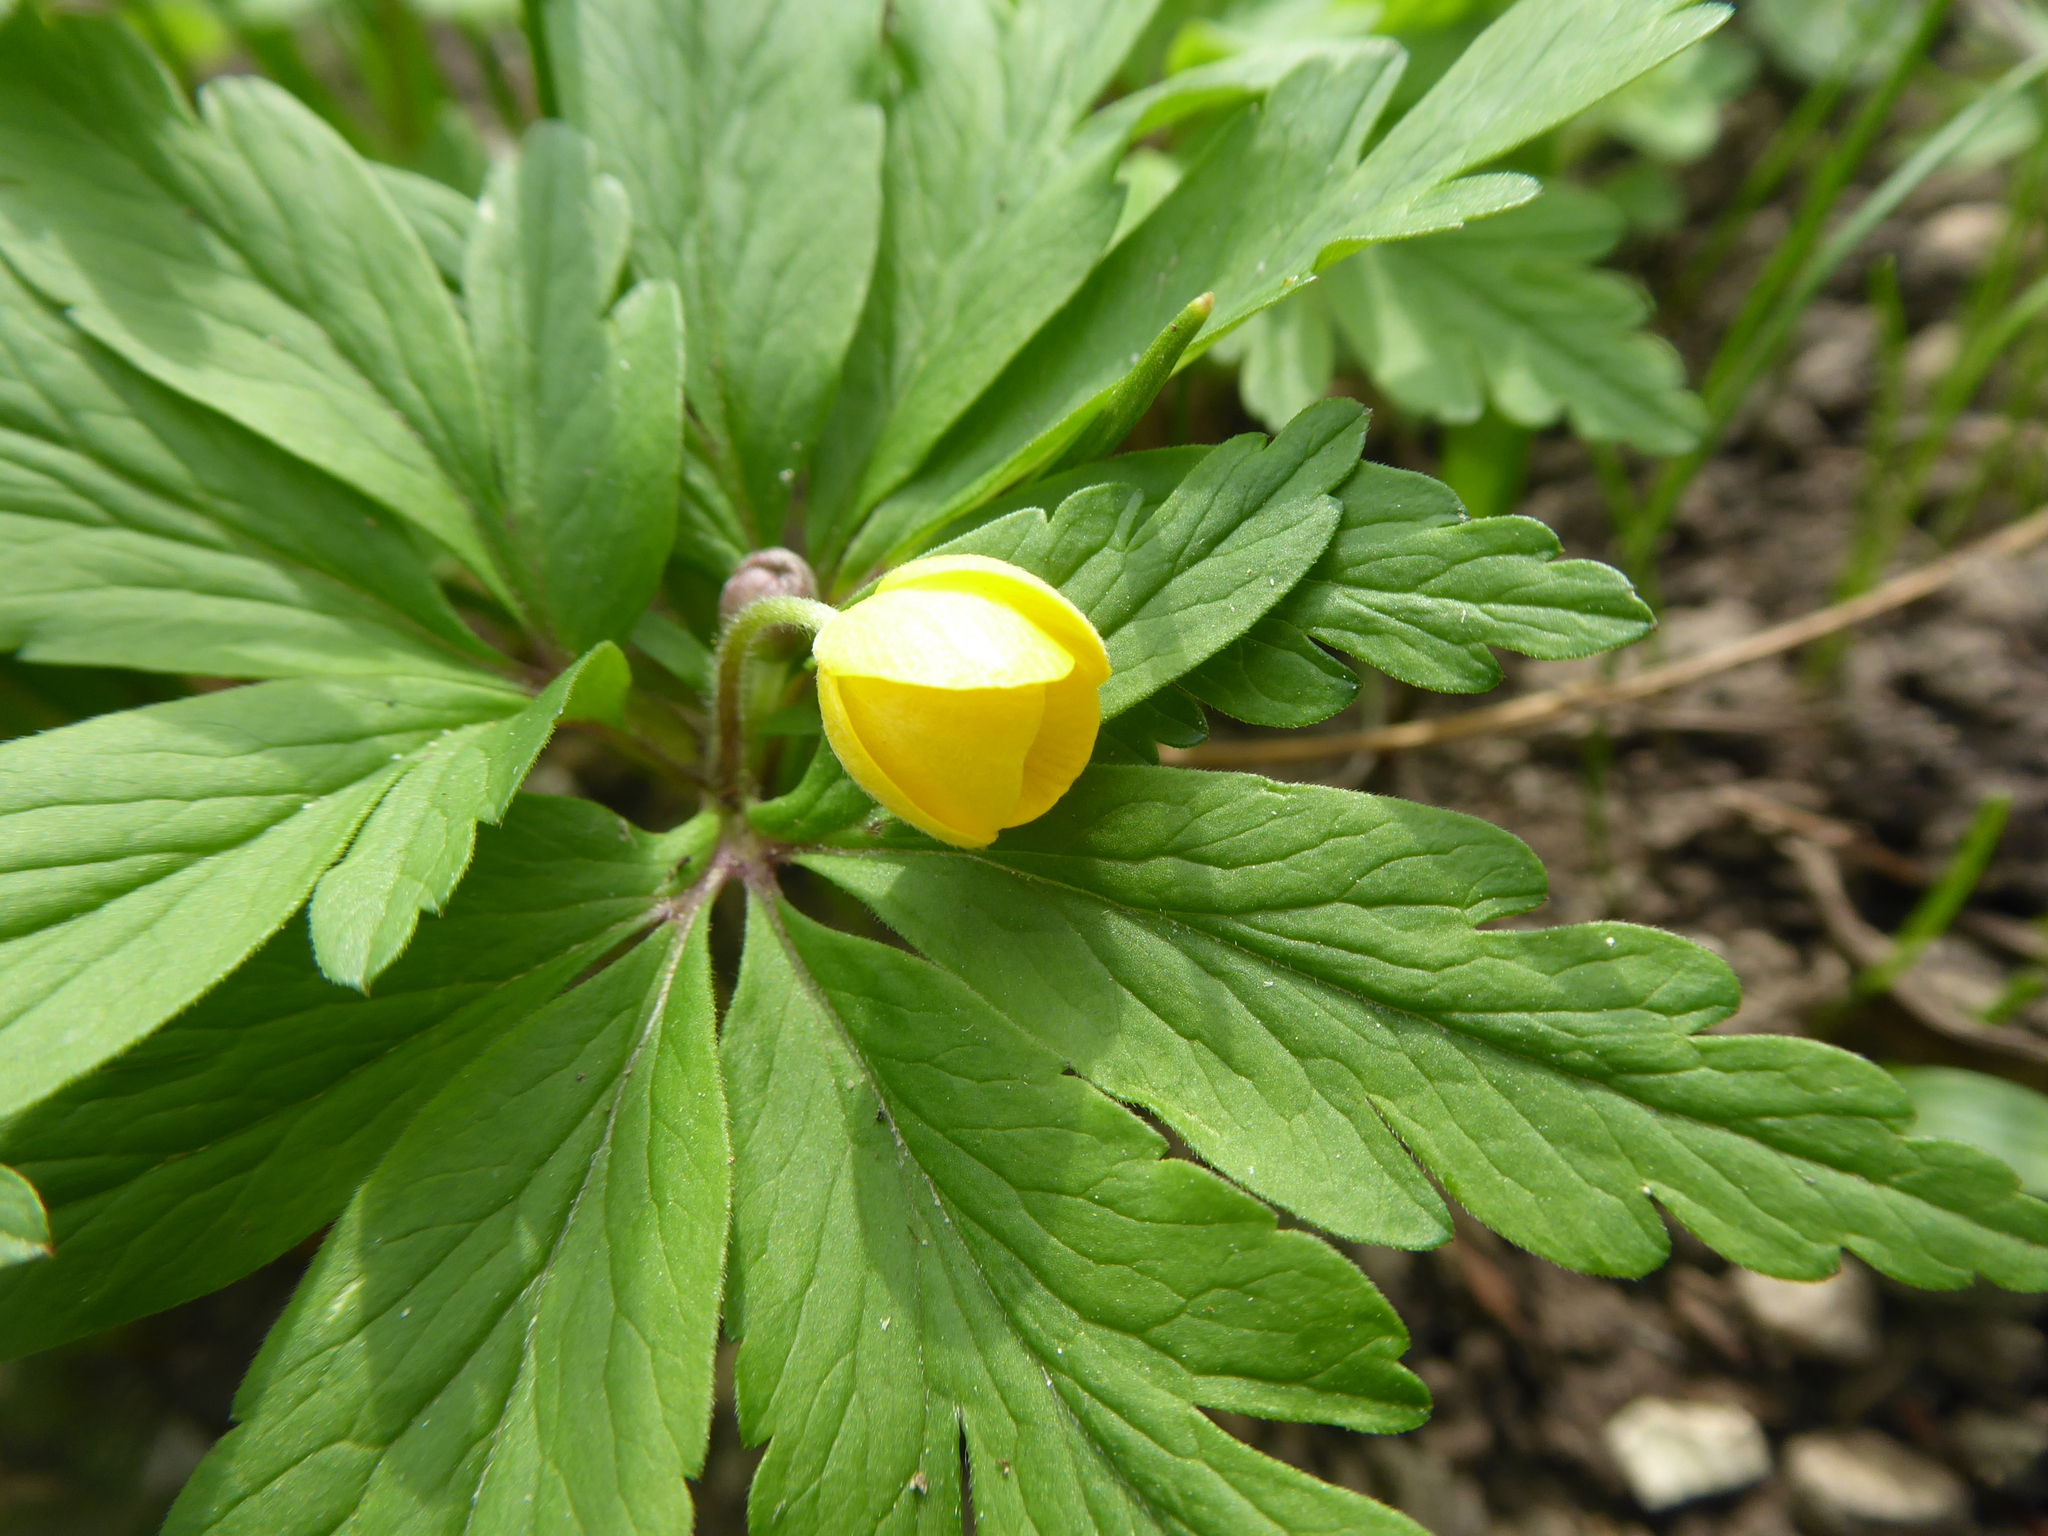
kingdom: Plantae
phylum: Tracheophyta
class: Magnoliopsida
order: Ranunculales
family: Ranunculaceae
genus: Anemone
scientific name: Anemone ranunculoides
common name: Yellow anemone
